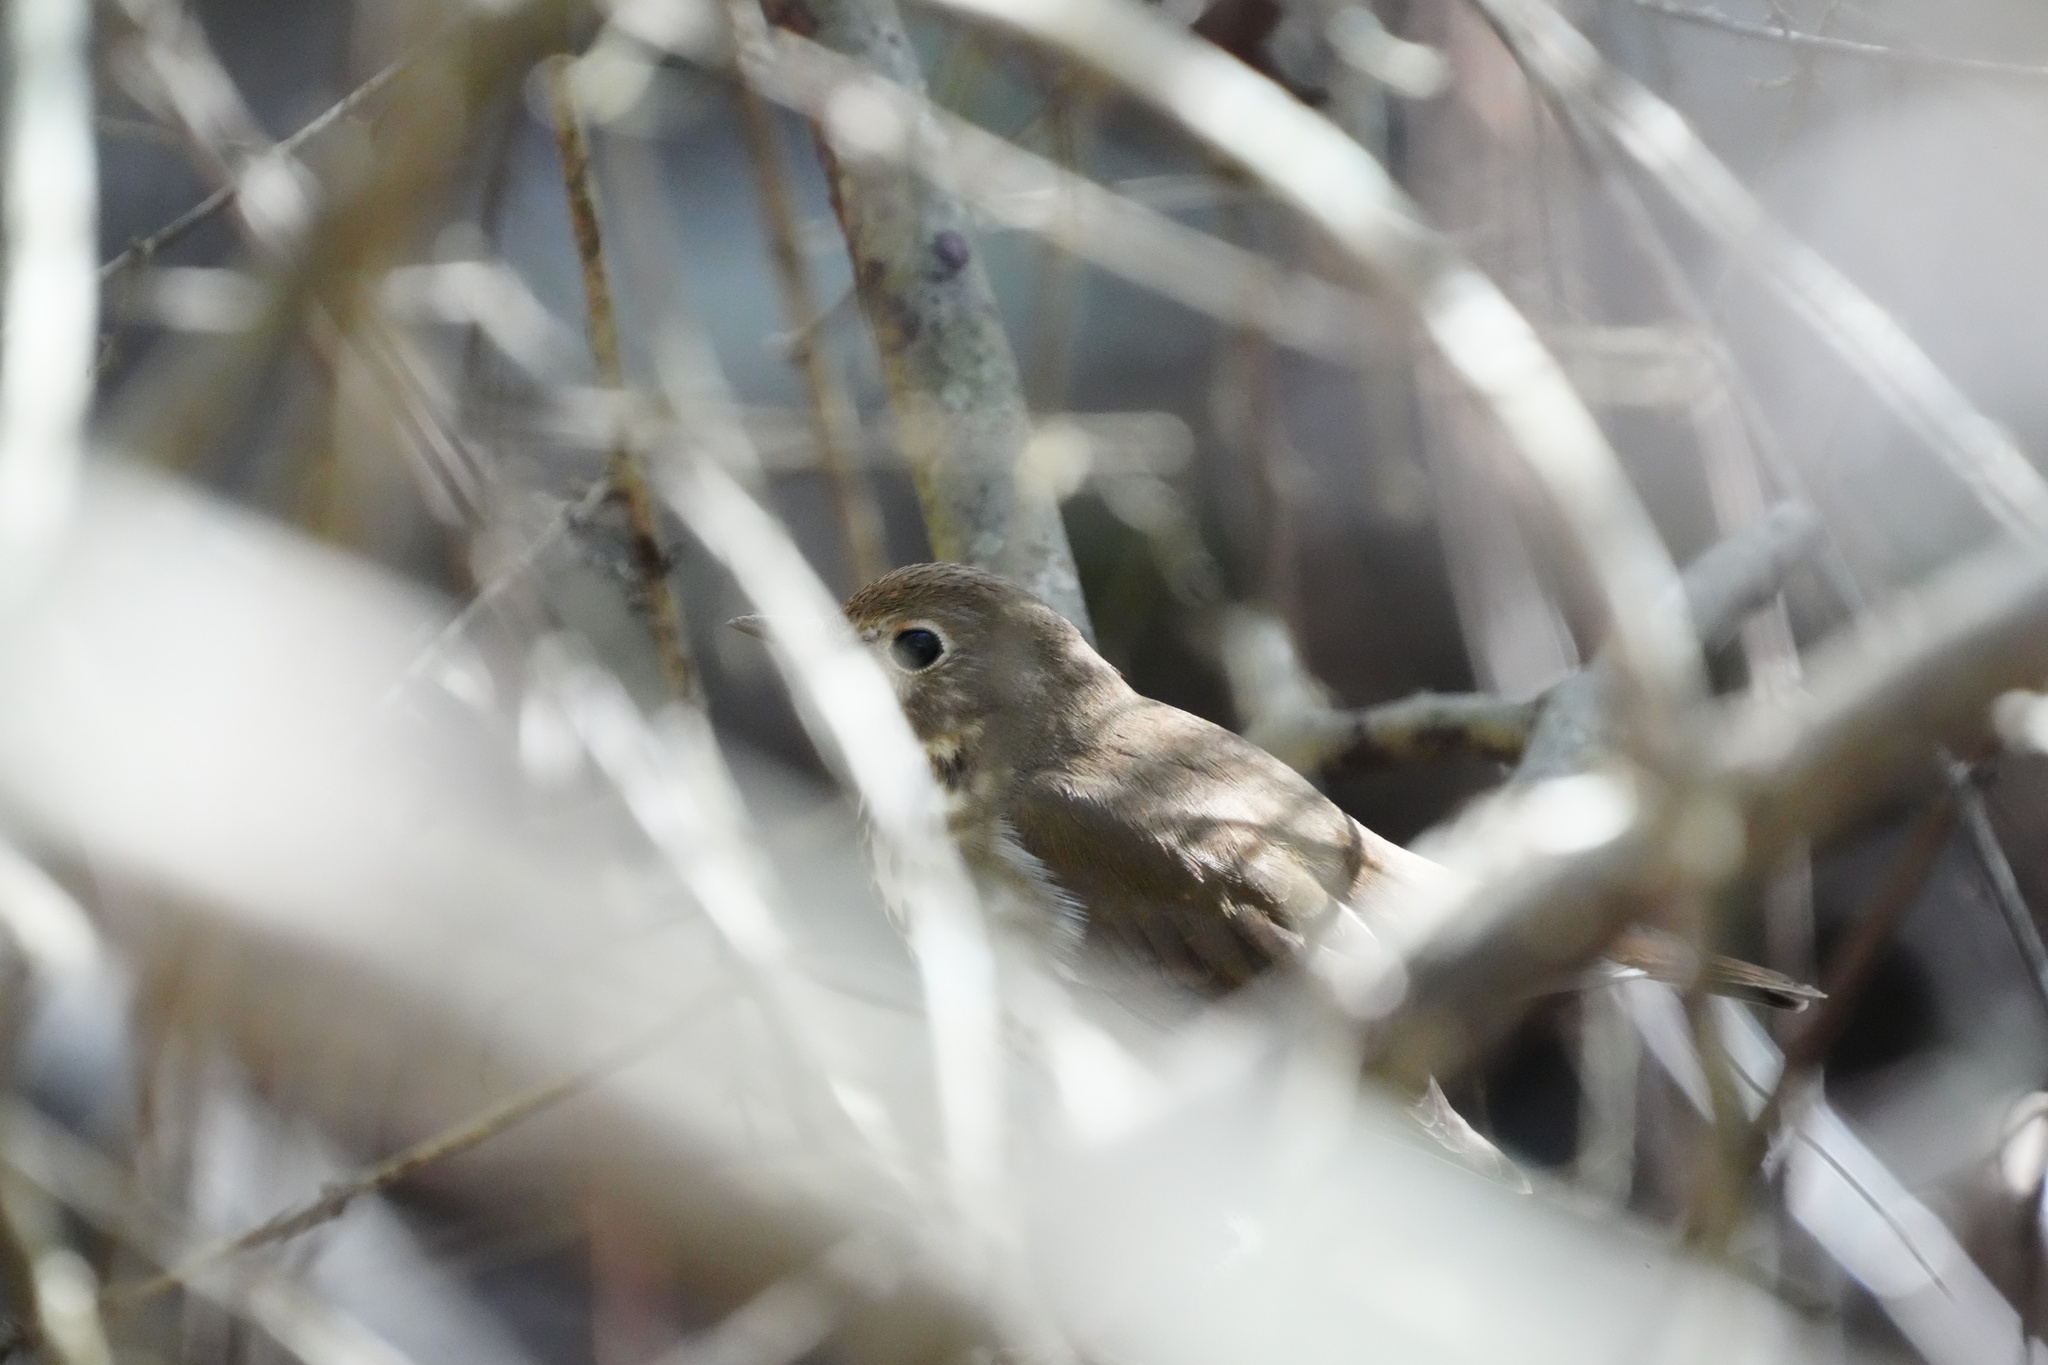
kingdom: Animalia
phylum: Chordata
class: Aves
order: Passeriformes
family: Turdidae
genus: Catharus
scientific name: Catharus guttatus
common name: Hermit thrush
